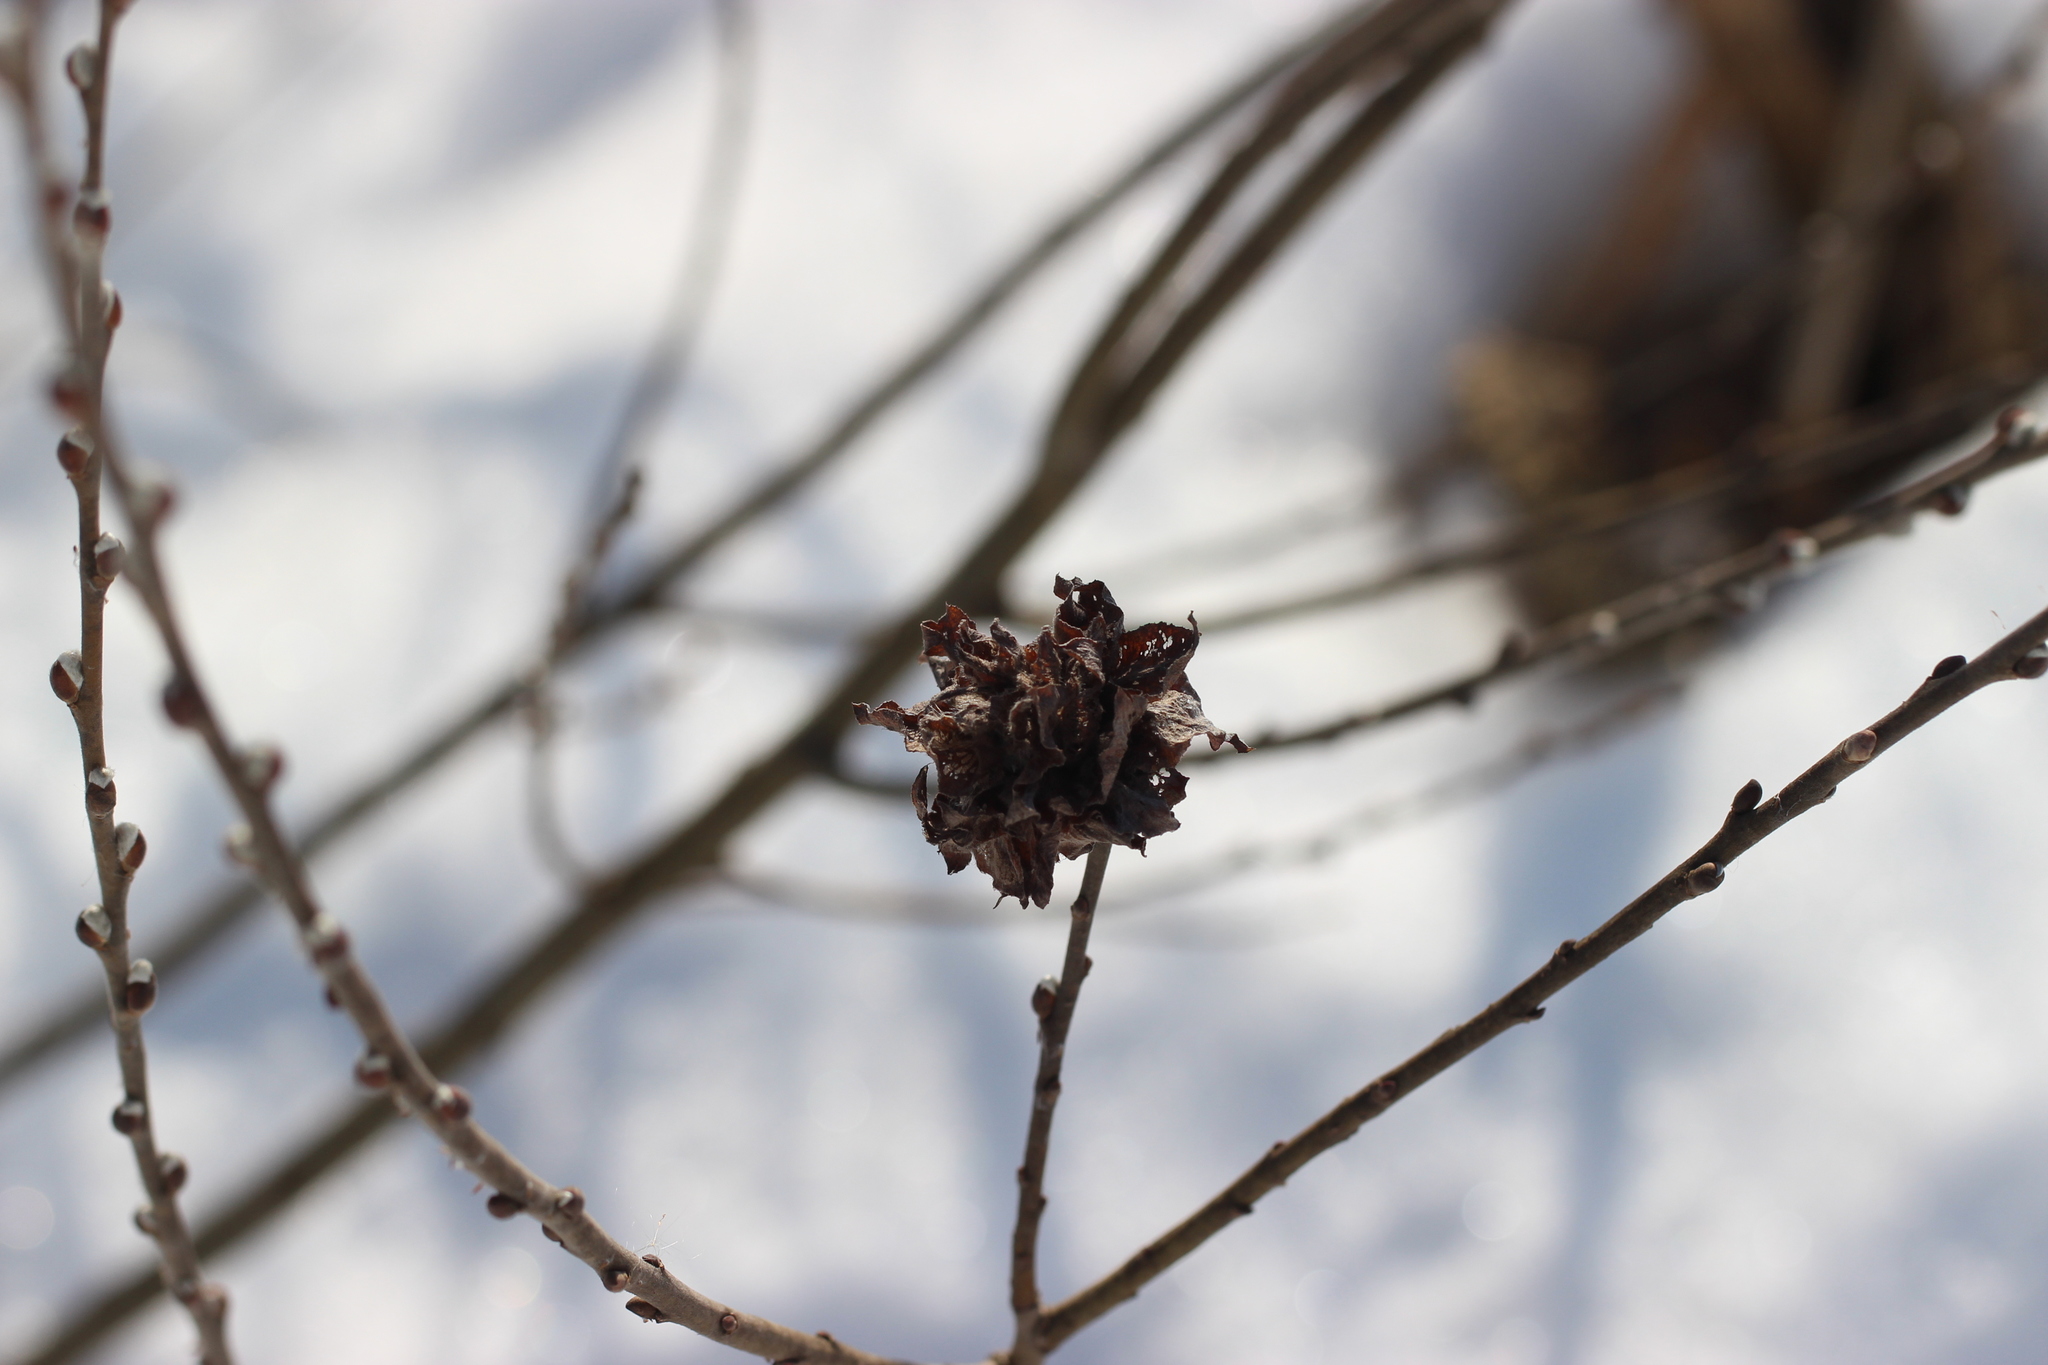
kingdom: Animalia
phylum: Arthropoda
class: Insecta
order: Diptera
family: Cecidomyiidae
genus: Rabdophaga
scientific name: Rabdophaga rosaria
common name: Willow rose gall midge
